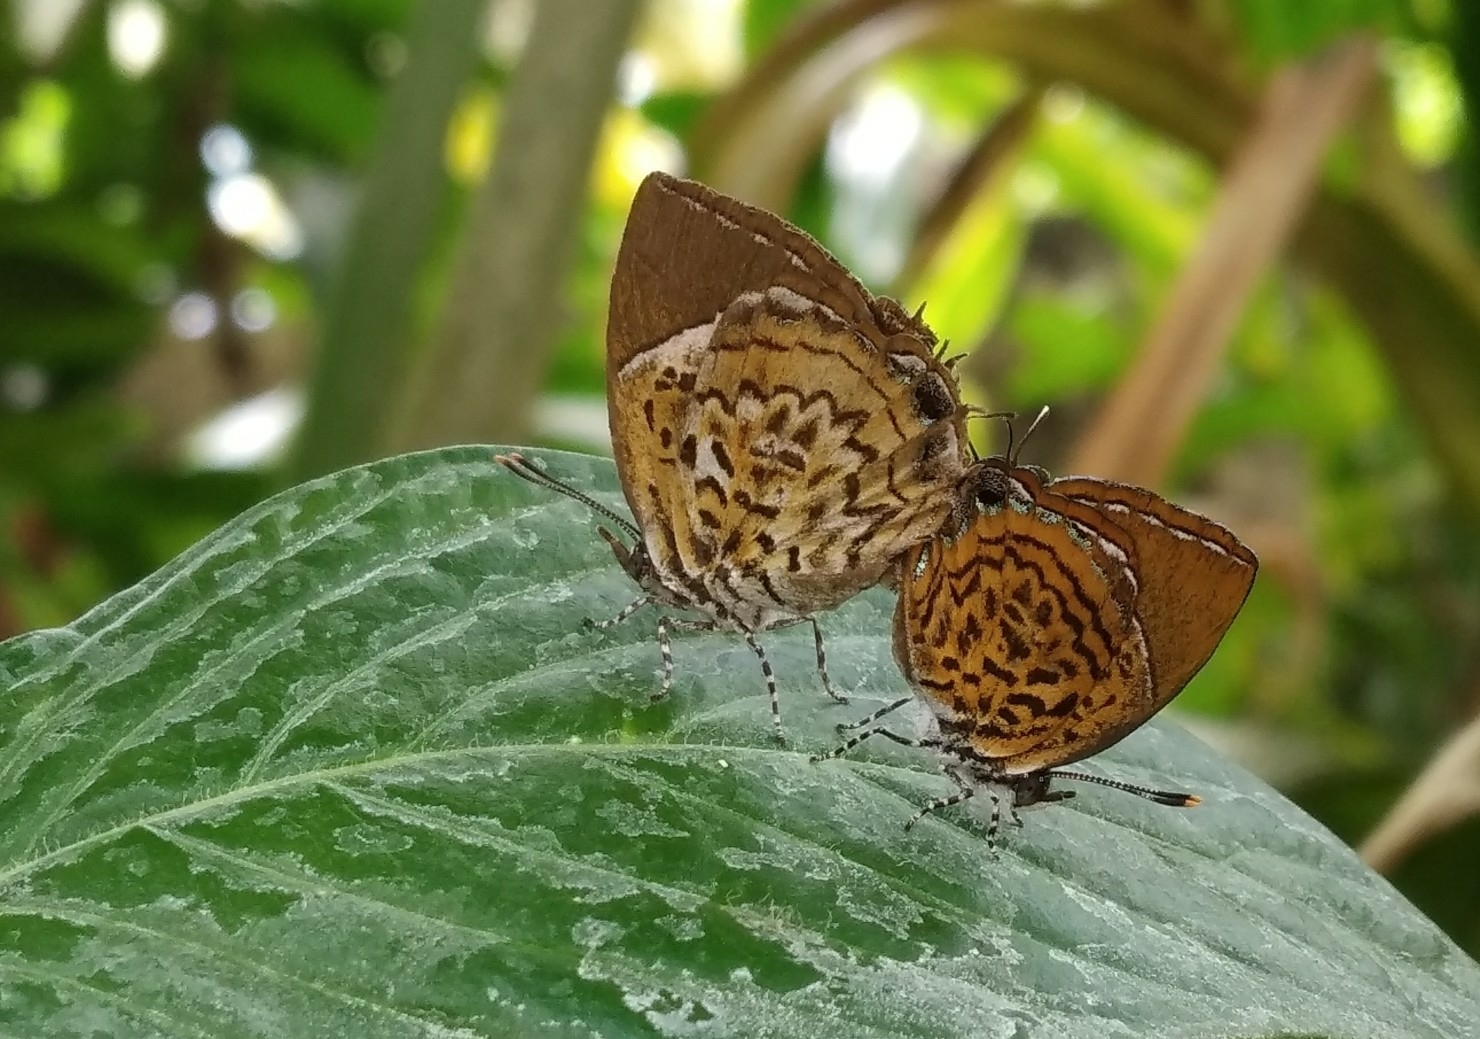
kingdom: Animalia
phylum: Arthropoda
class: Insecta
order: Lepidoptera
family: Lycaenidae
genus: Rathinda
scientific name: Rathinda amor
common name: Monkey puzzle
